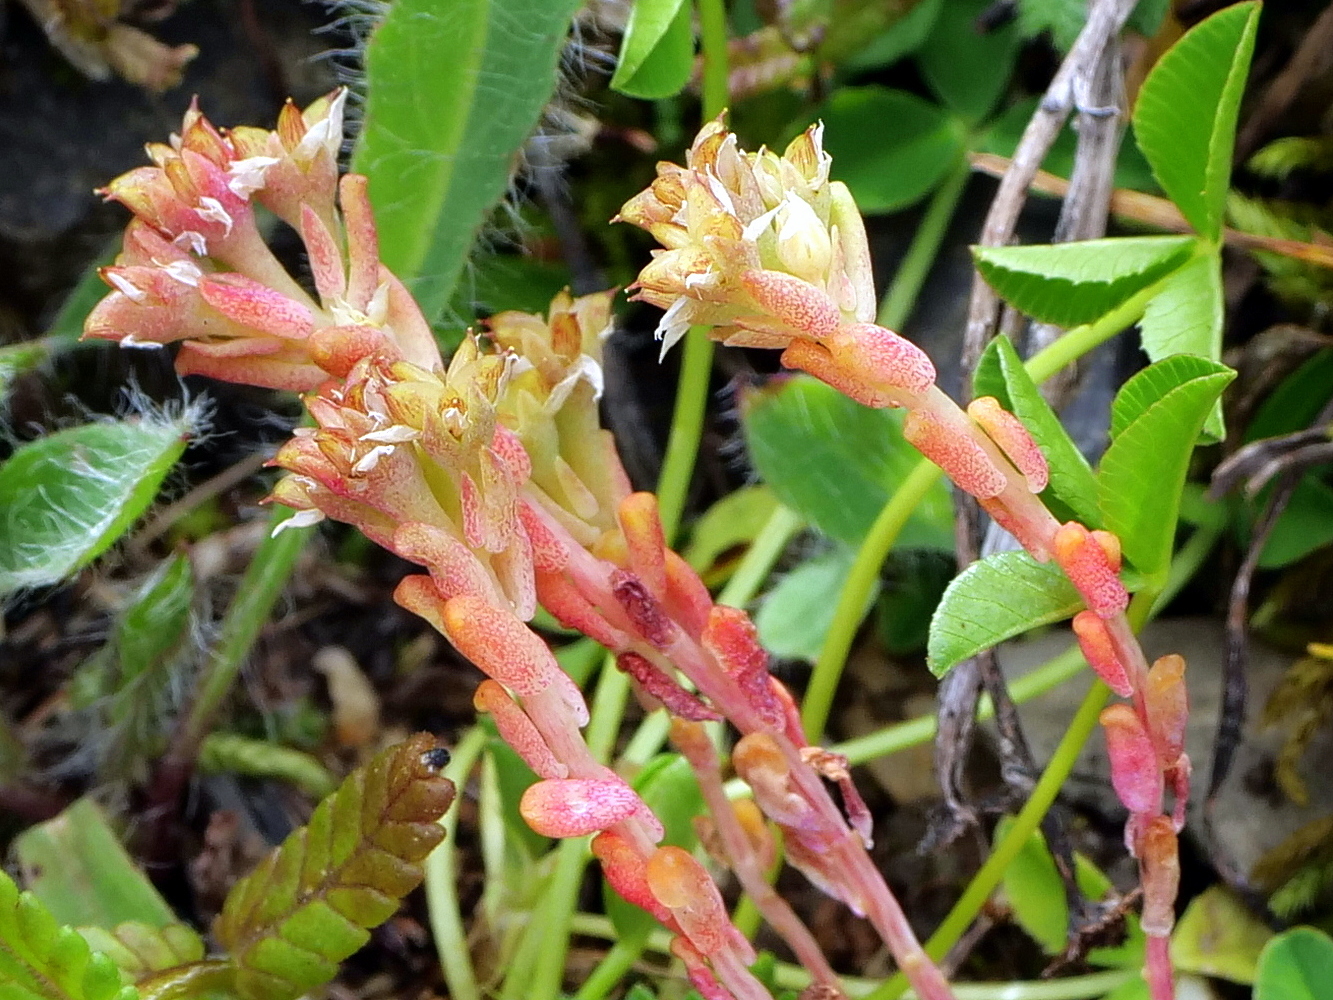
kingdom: Plantae
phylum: Tracheophyta
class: Magnoliopsida
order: Saxifragales
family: Crassulaceae
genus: Sedum
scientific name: Sedum atratum
